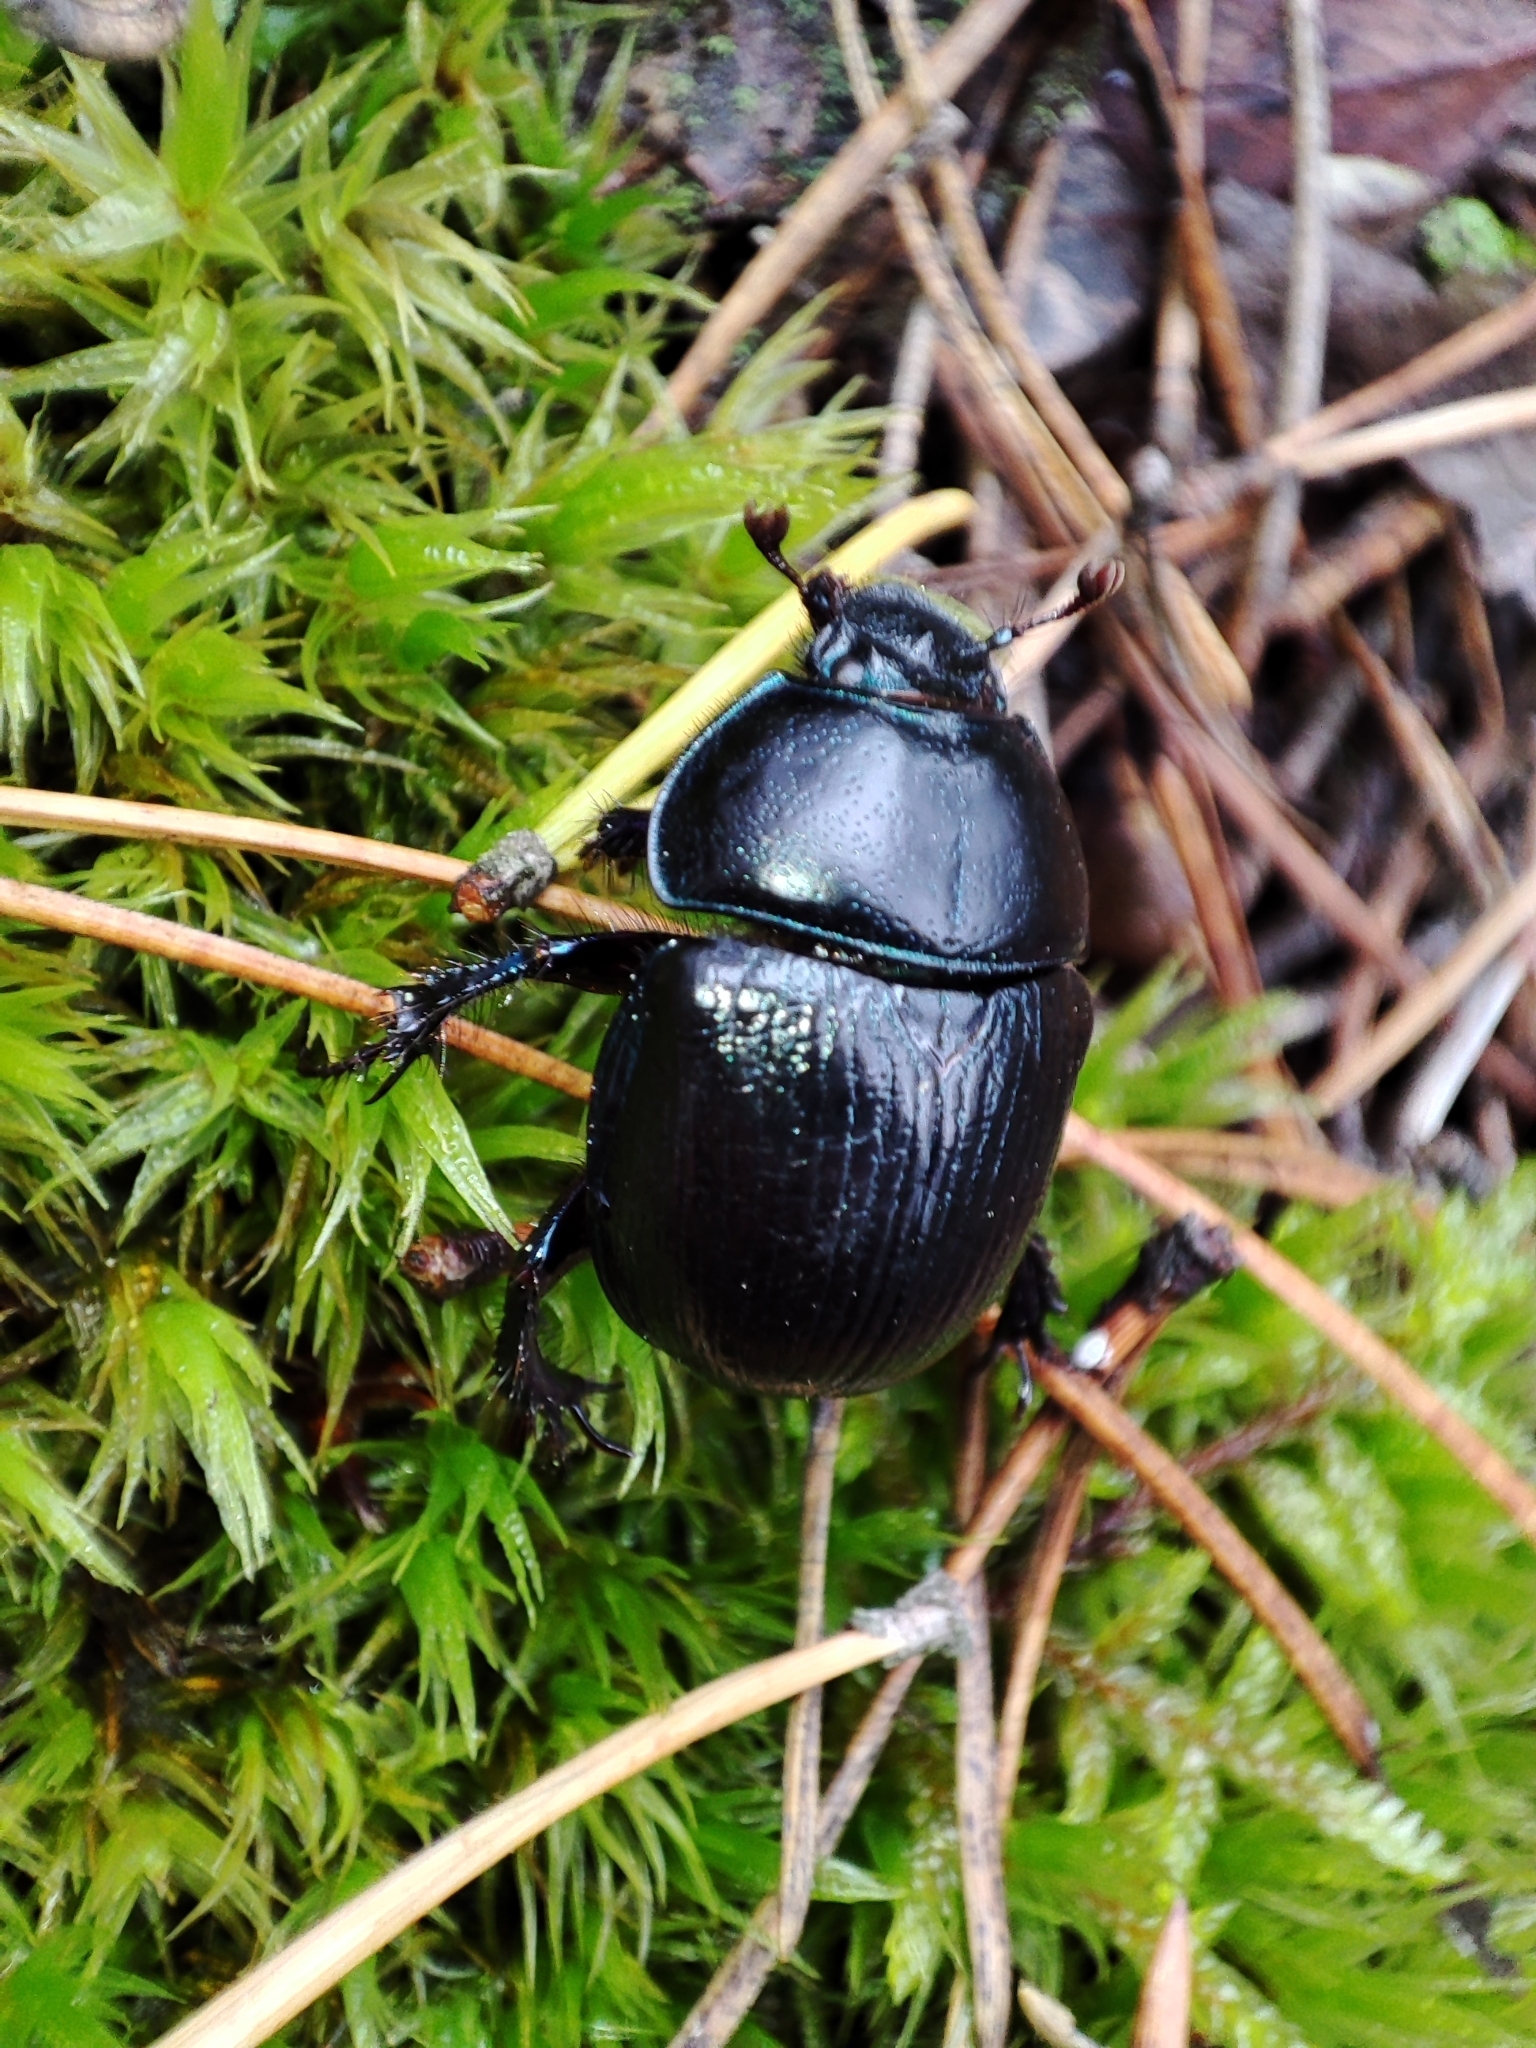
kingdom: Animalia
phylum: Arthropoda
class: Insecta
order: Coleoptera
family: Geotrupidae
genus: Anoplotrupes
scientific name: Anoplotrupes stercorosus
